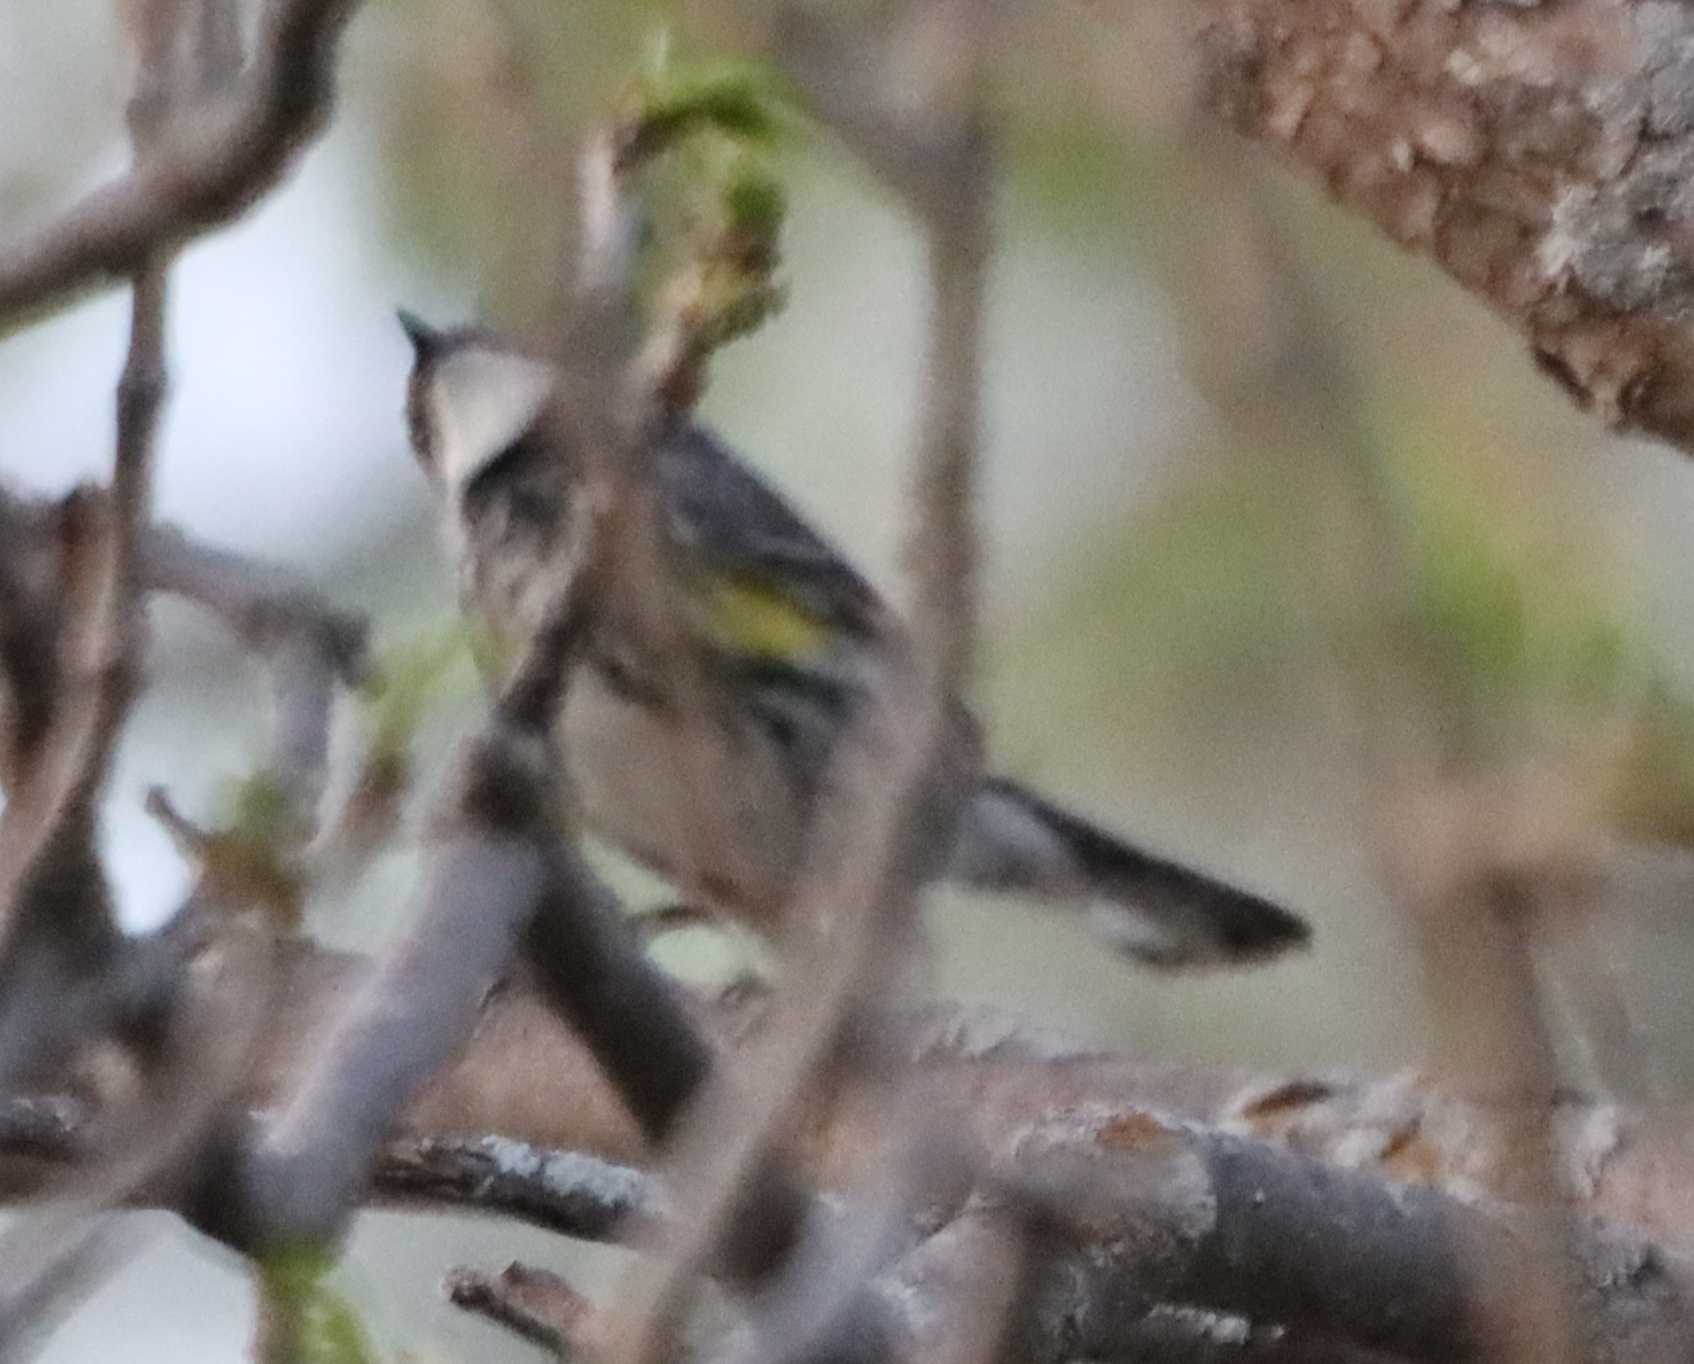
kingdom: Animalia
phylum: Chordata
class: Aves
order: Passeriformes
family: Parulidae
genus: Setophaga
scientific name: Setophaga coronata
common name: Myrtle warbler
